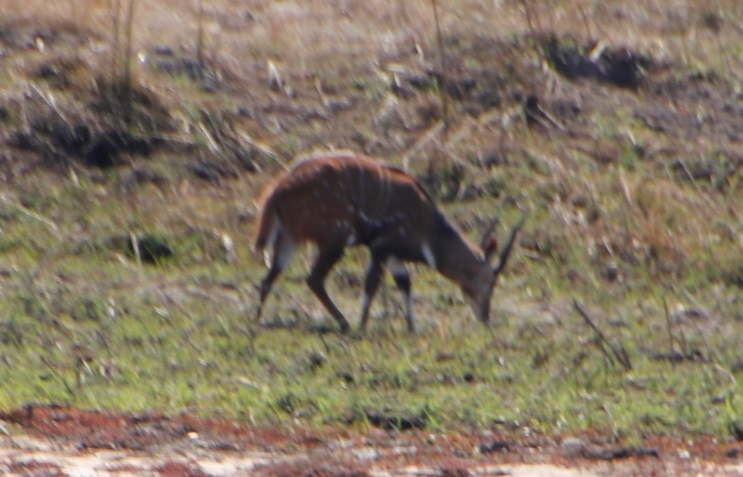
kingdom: Animalia
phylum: Chordata
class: Mammalia
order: Artiodactyla
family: Bovidae
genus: Tragelaphus
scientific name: Tragelaphus scriptus
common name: Bushbuck
